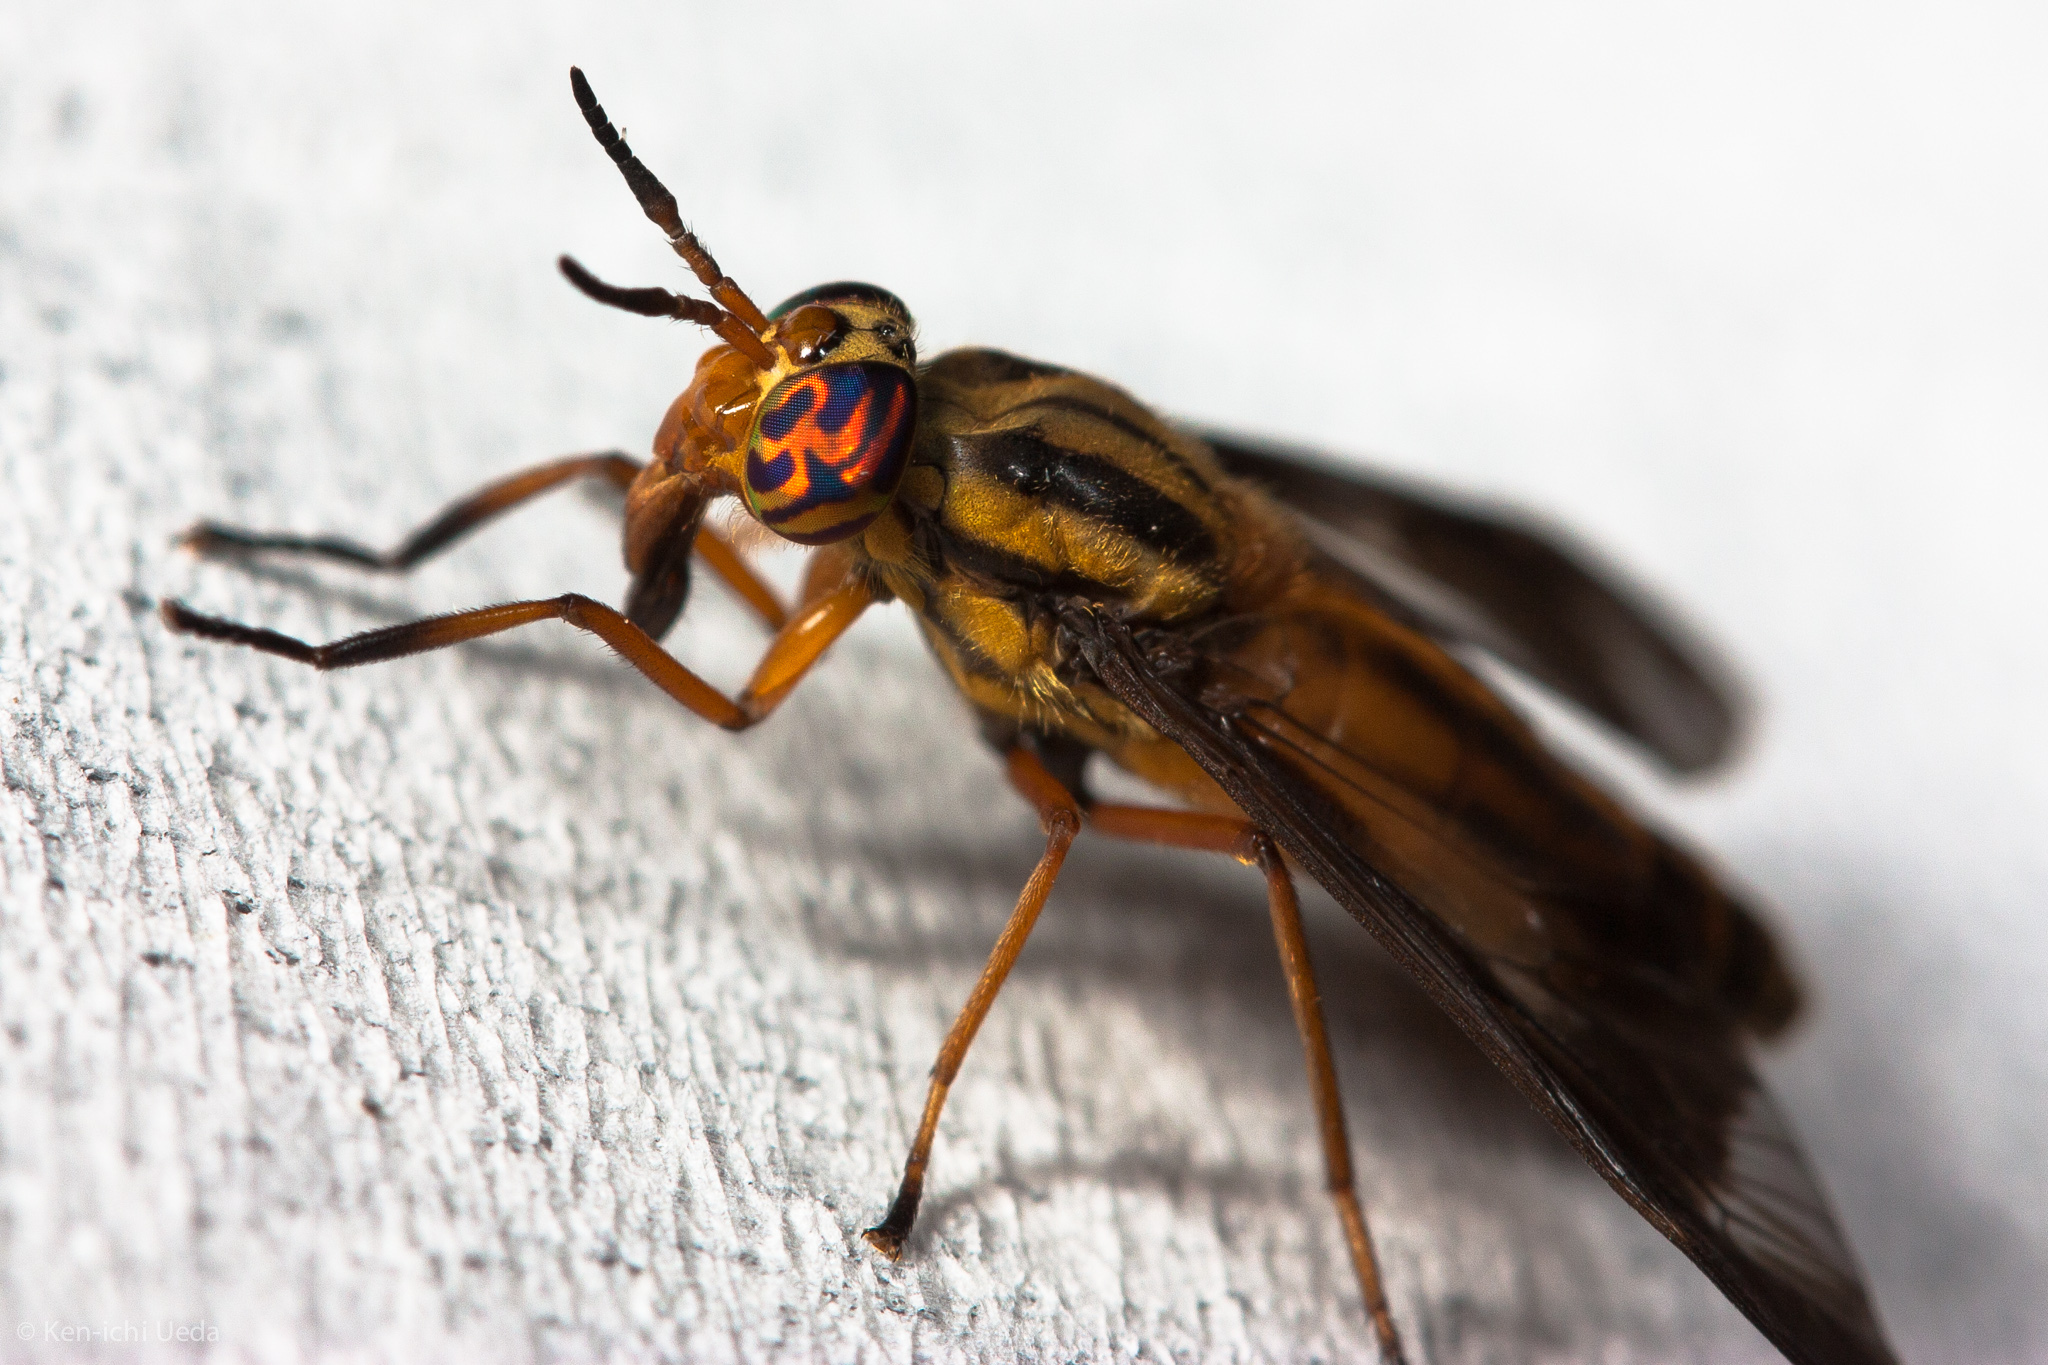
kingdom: Animalia
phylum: Arthropoda
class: Insecta
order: Diptera
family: Tabanidae
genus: Chrysops
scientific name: Chrysops vittatus
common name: Striped deer fly
